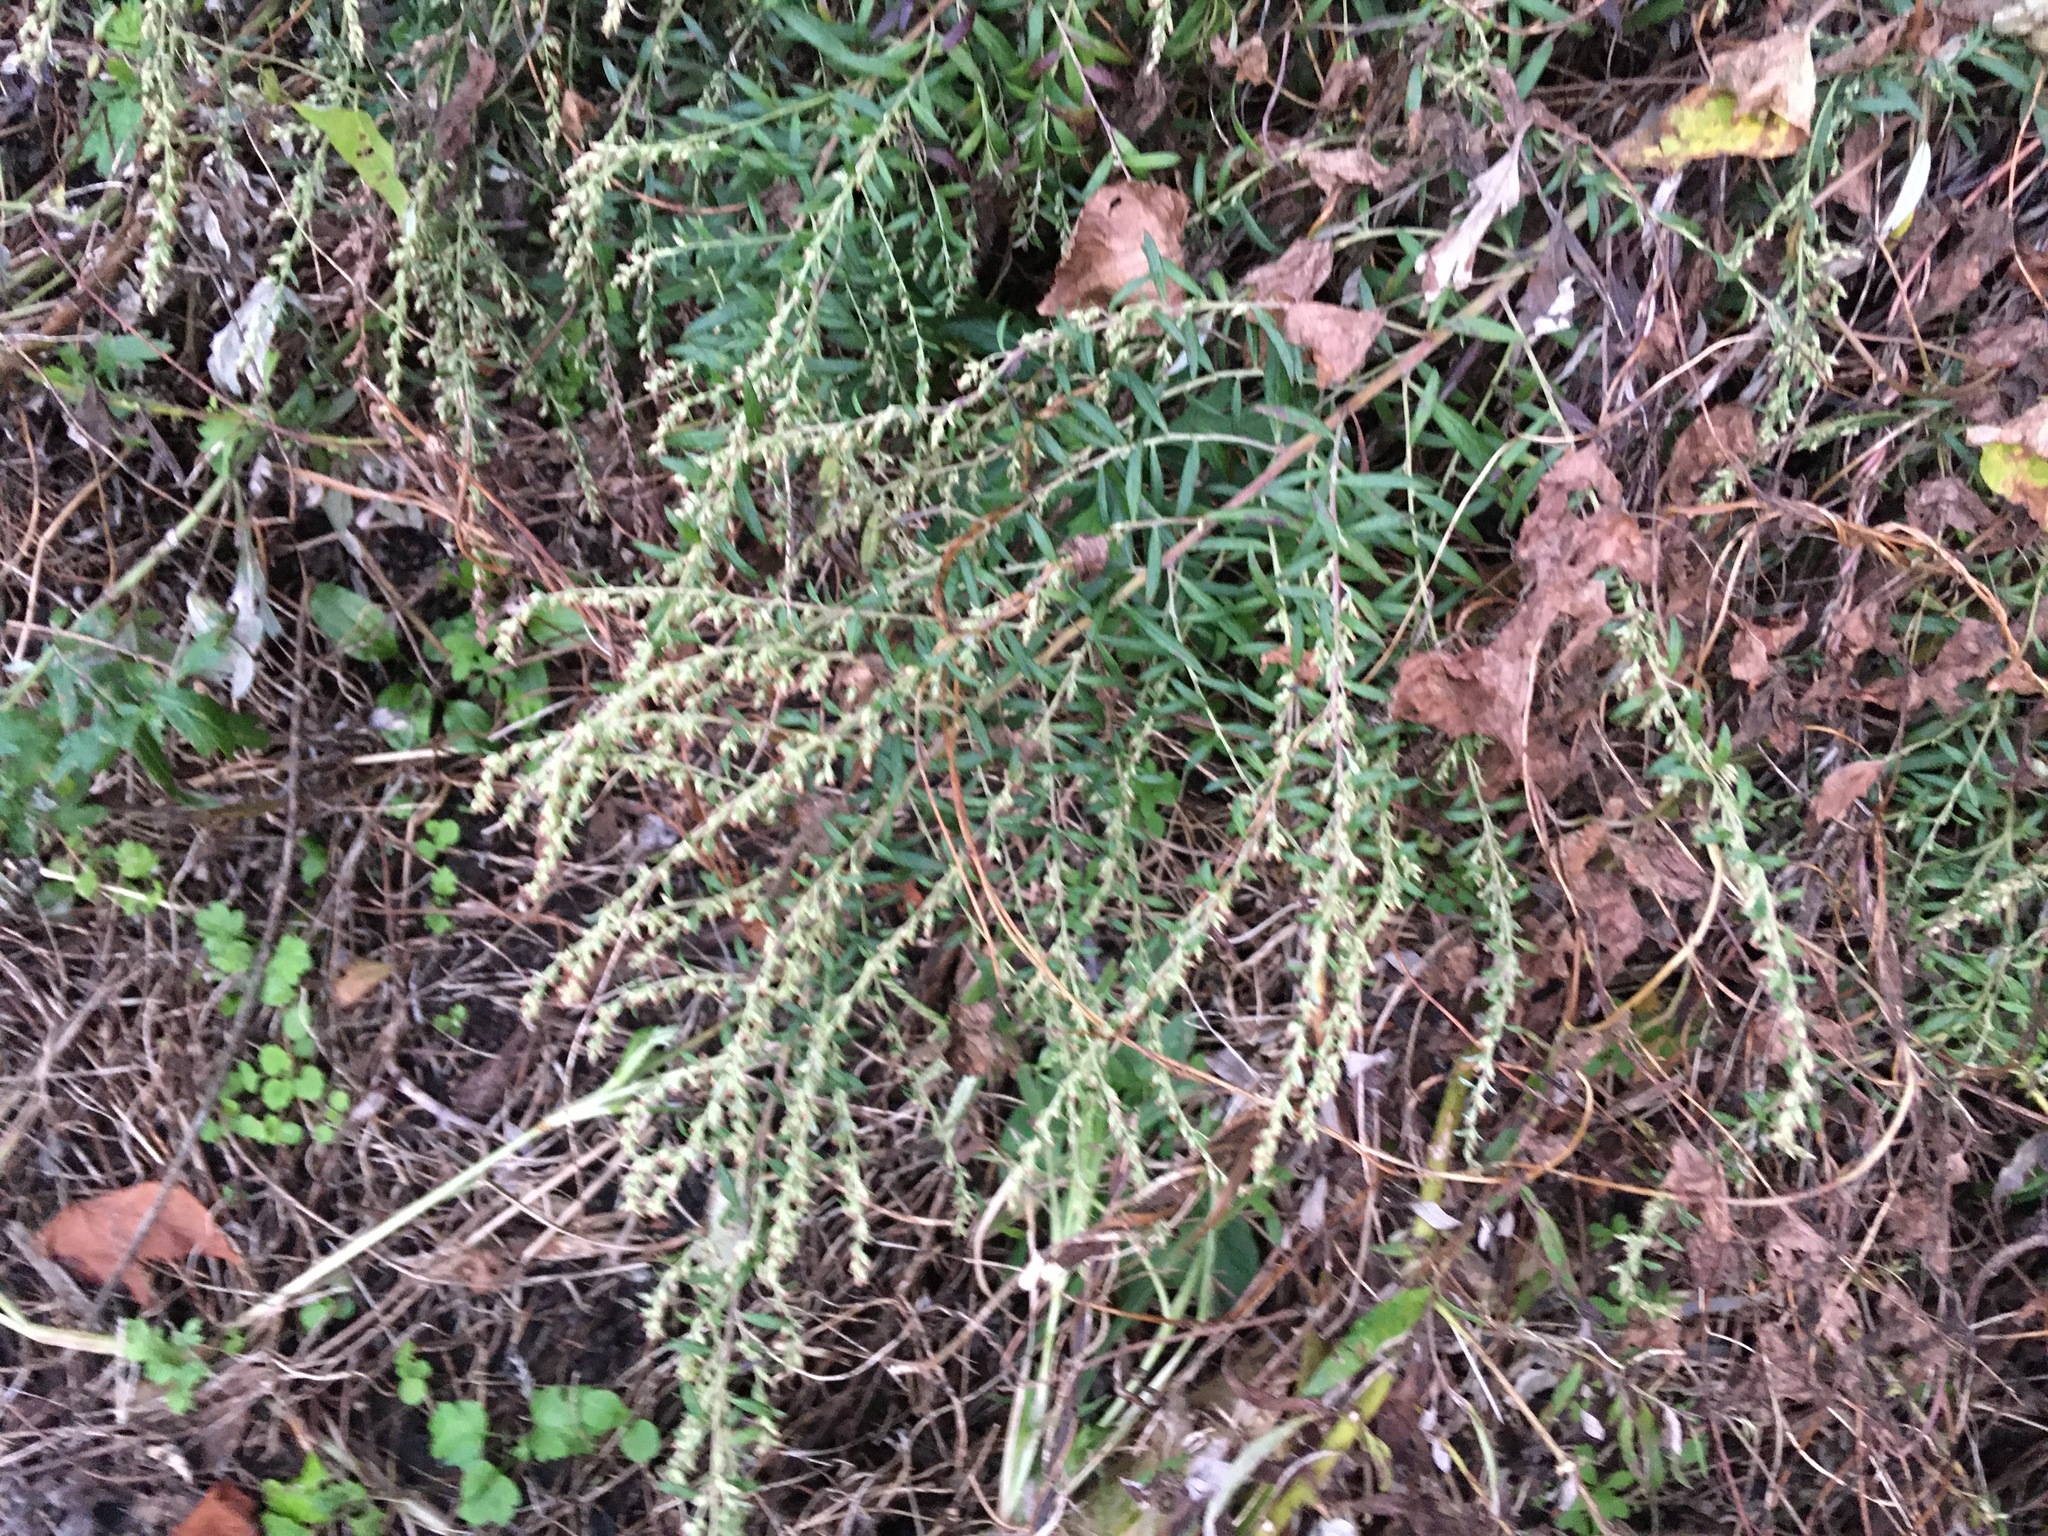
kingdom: Plantae
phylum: Tracheophyta
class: Magnoliopsida
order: Asterales
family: Asteraceae
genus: Artemisia
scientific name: Artemisia vulgaris
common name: Mugwort
